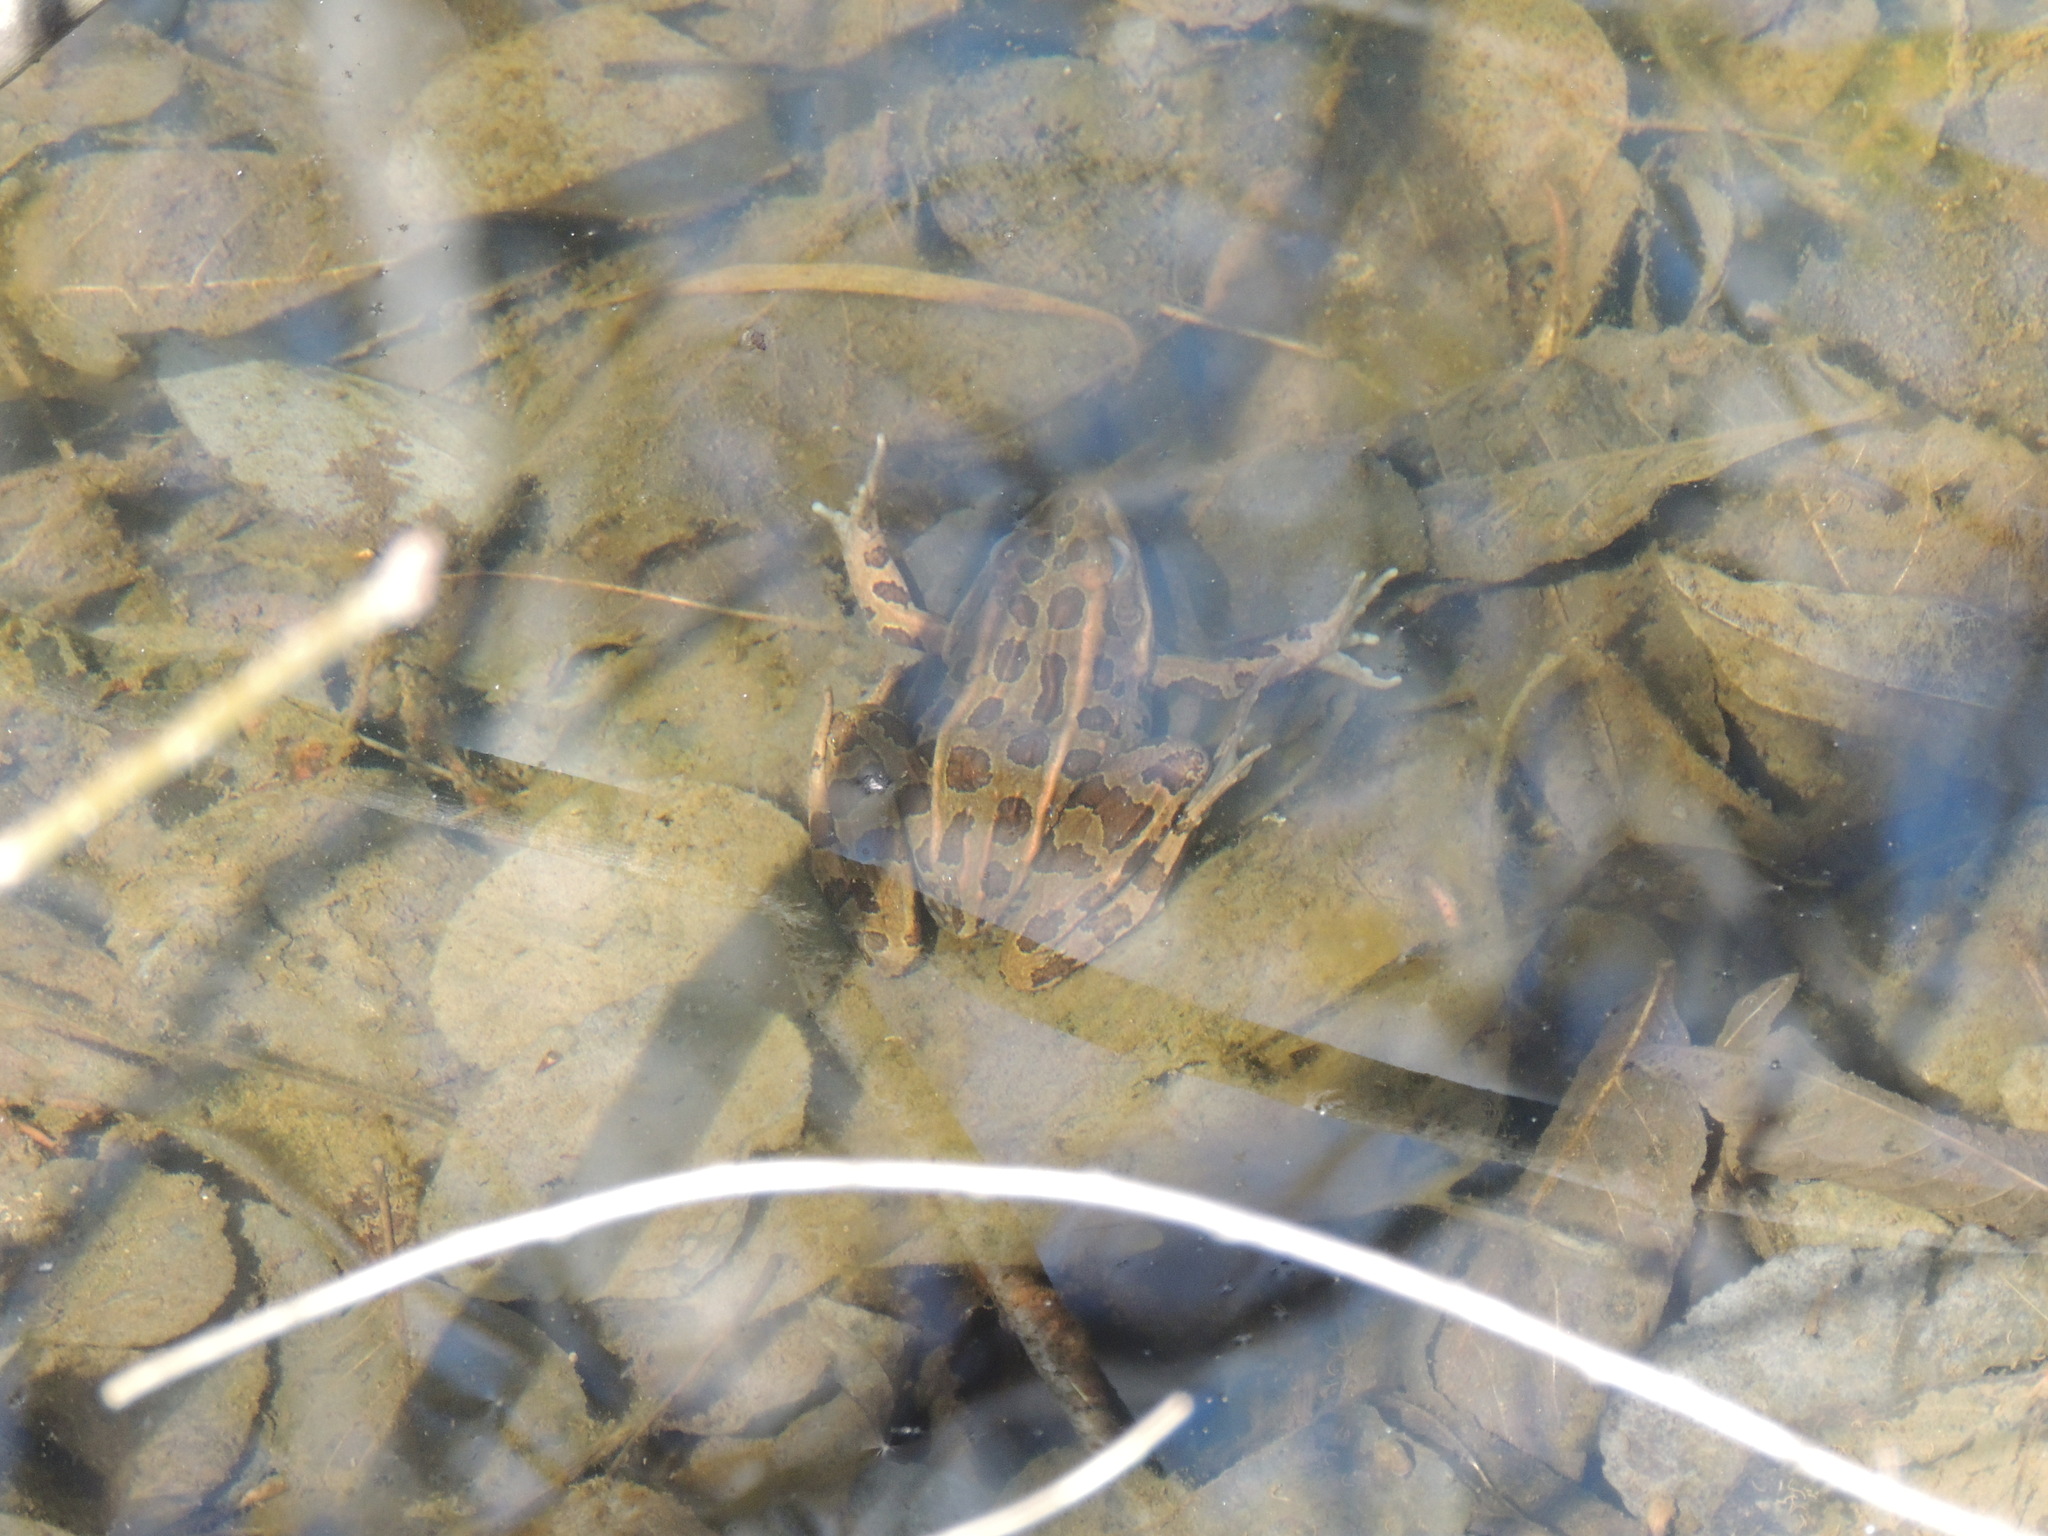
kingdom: Animalia
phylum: Chordata
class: Amphibia
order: Anura
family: Ranidae
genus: Lithobates
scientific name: Lithobates pipiens
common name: Northern leopard frog
